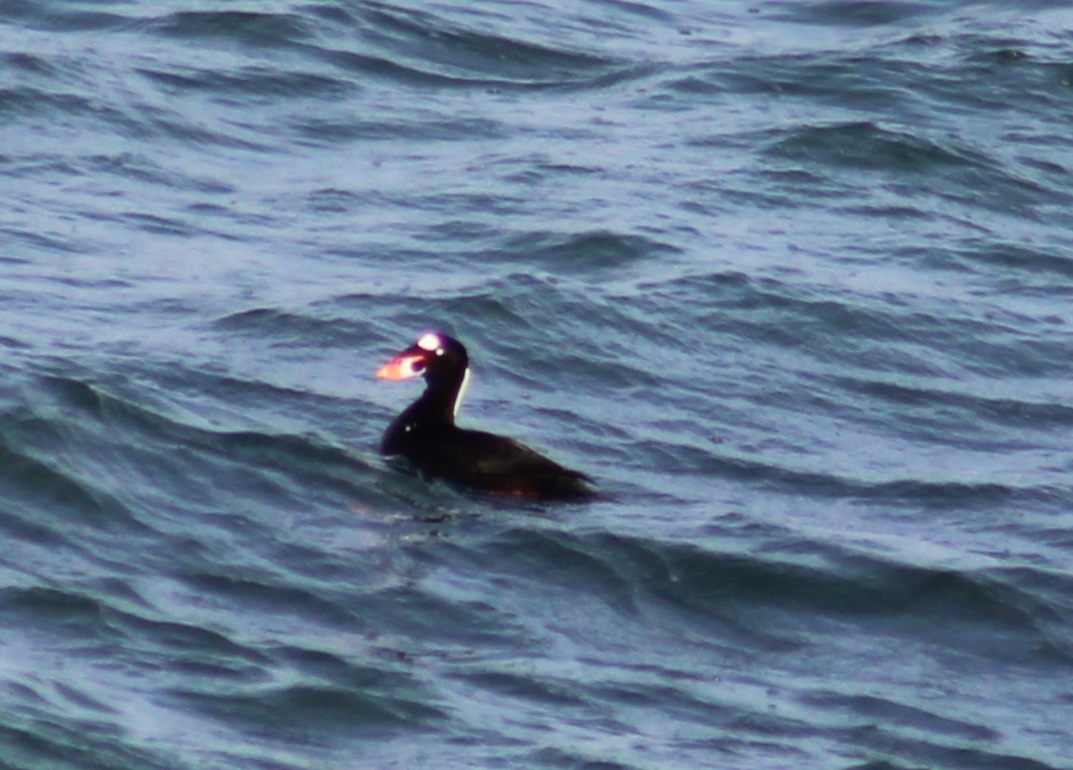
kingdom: Animalia
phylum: Chordata
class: Aves
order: Anseriformes
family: Anatidae
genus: Melanitta
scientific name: Melanitta perspicillata
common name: Surf scoter
